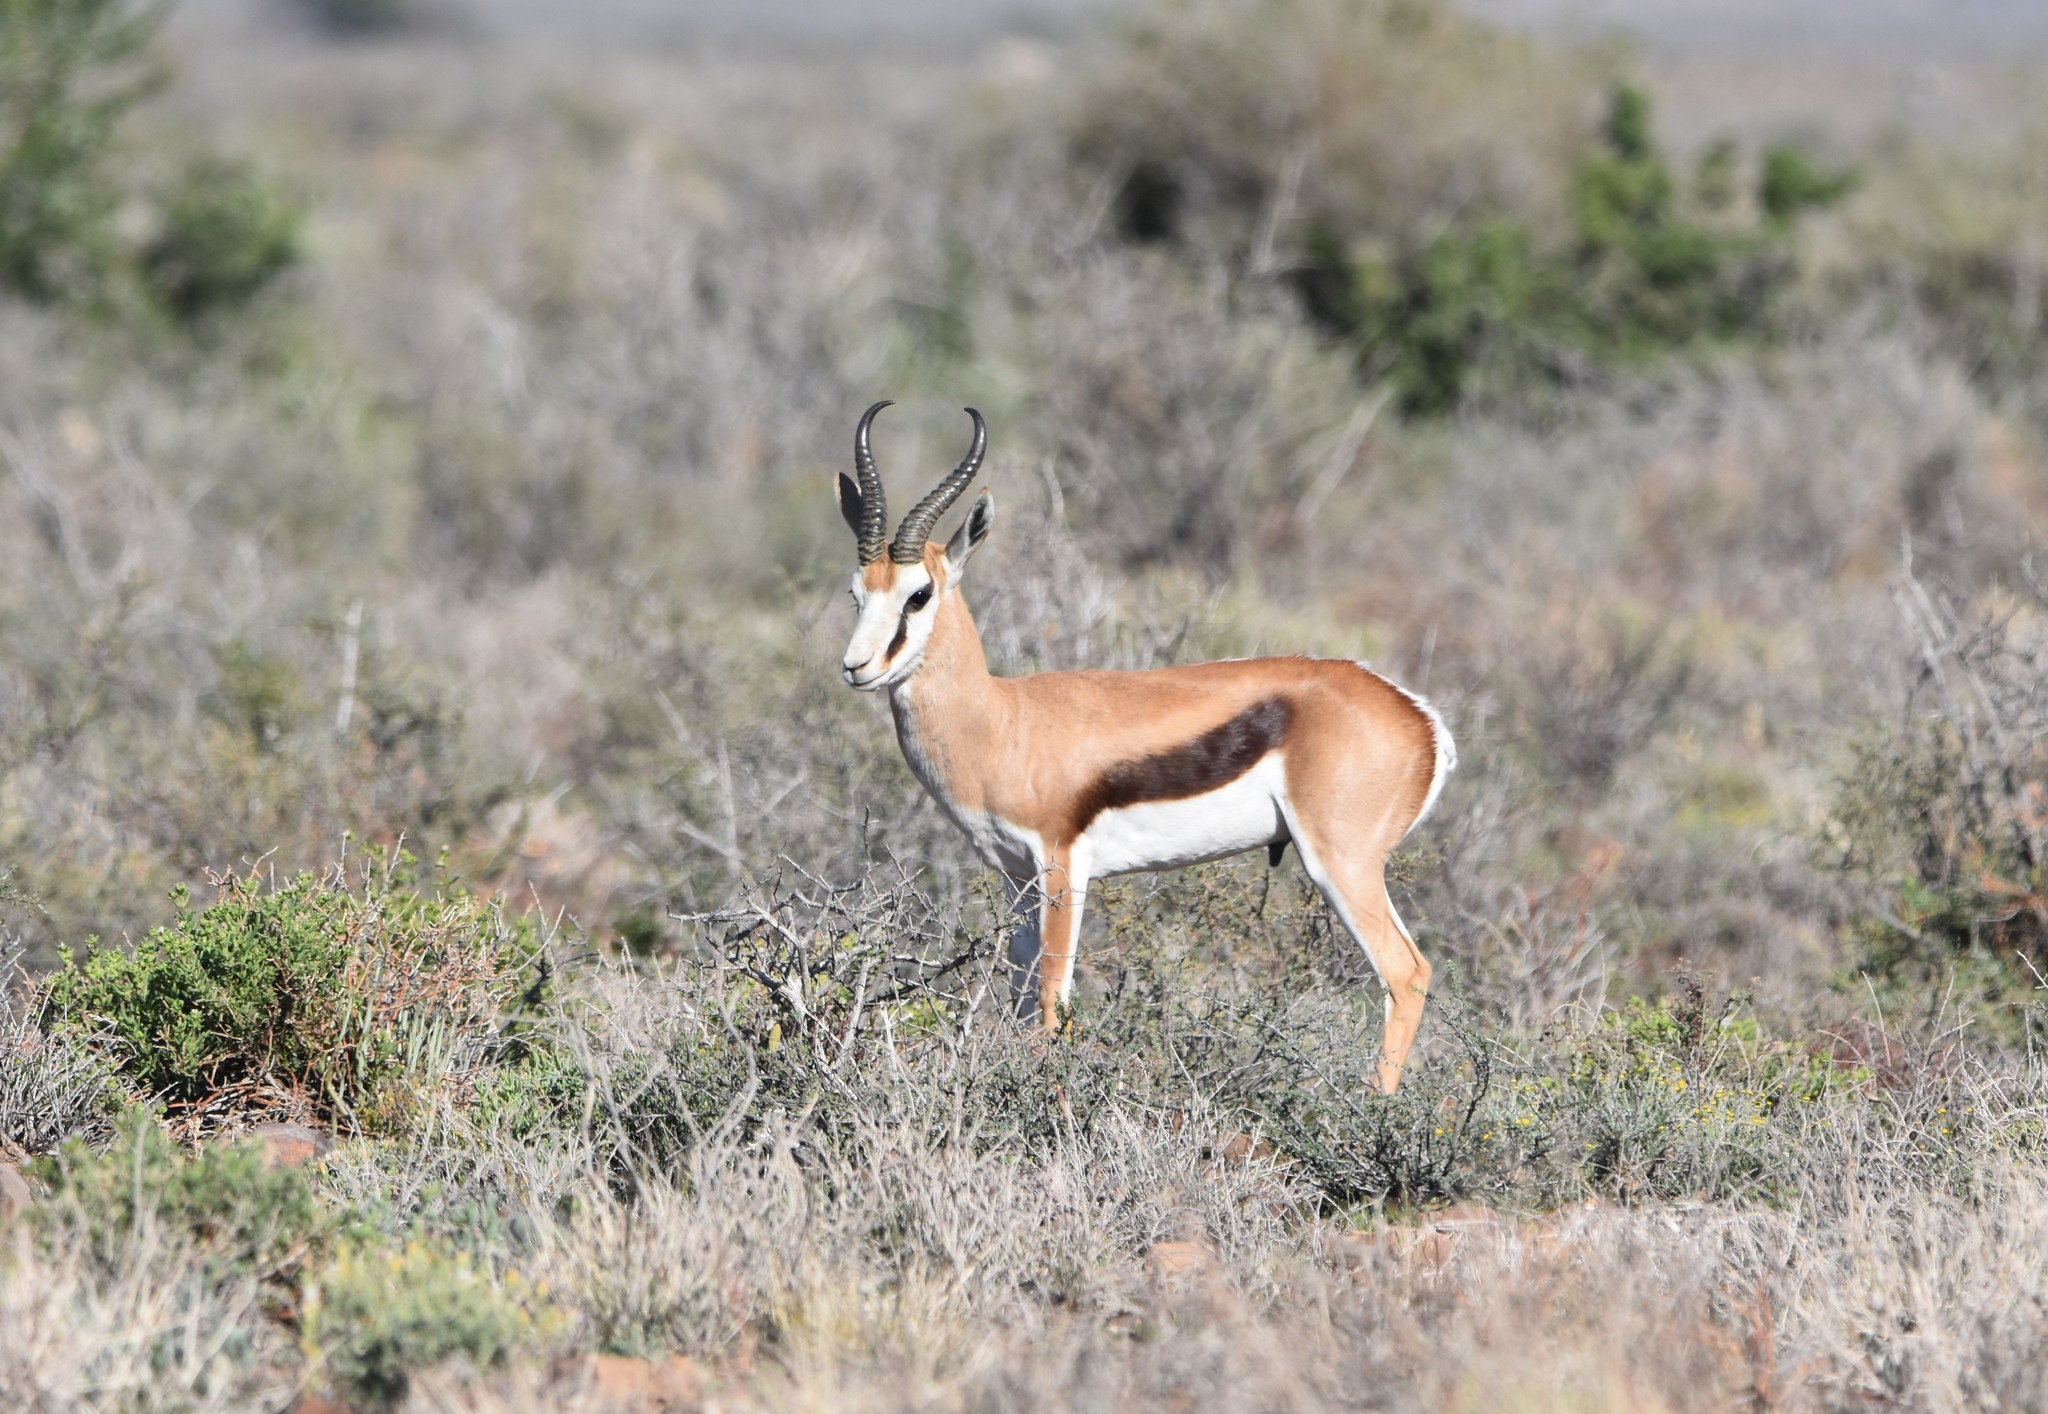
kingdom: Animalia
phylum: Chordata
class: Mammalia
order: Artiodactyla
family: Bovidae
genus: Antidorcas
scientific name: Antidorcas marsupialis
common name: Springbok
